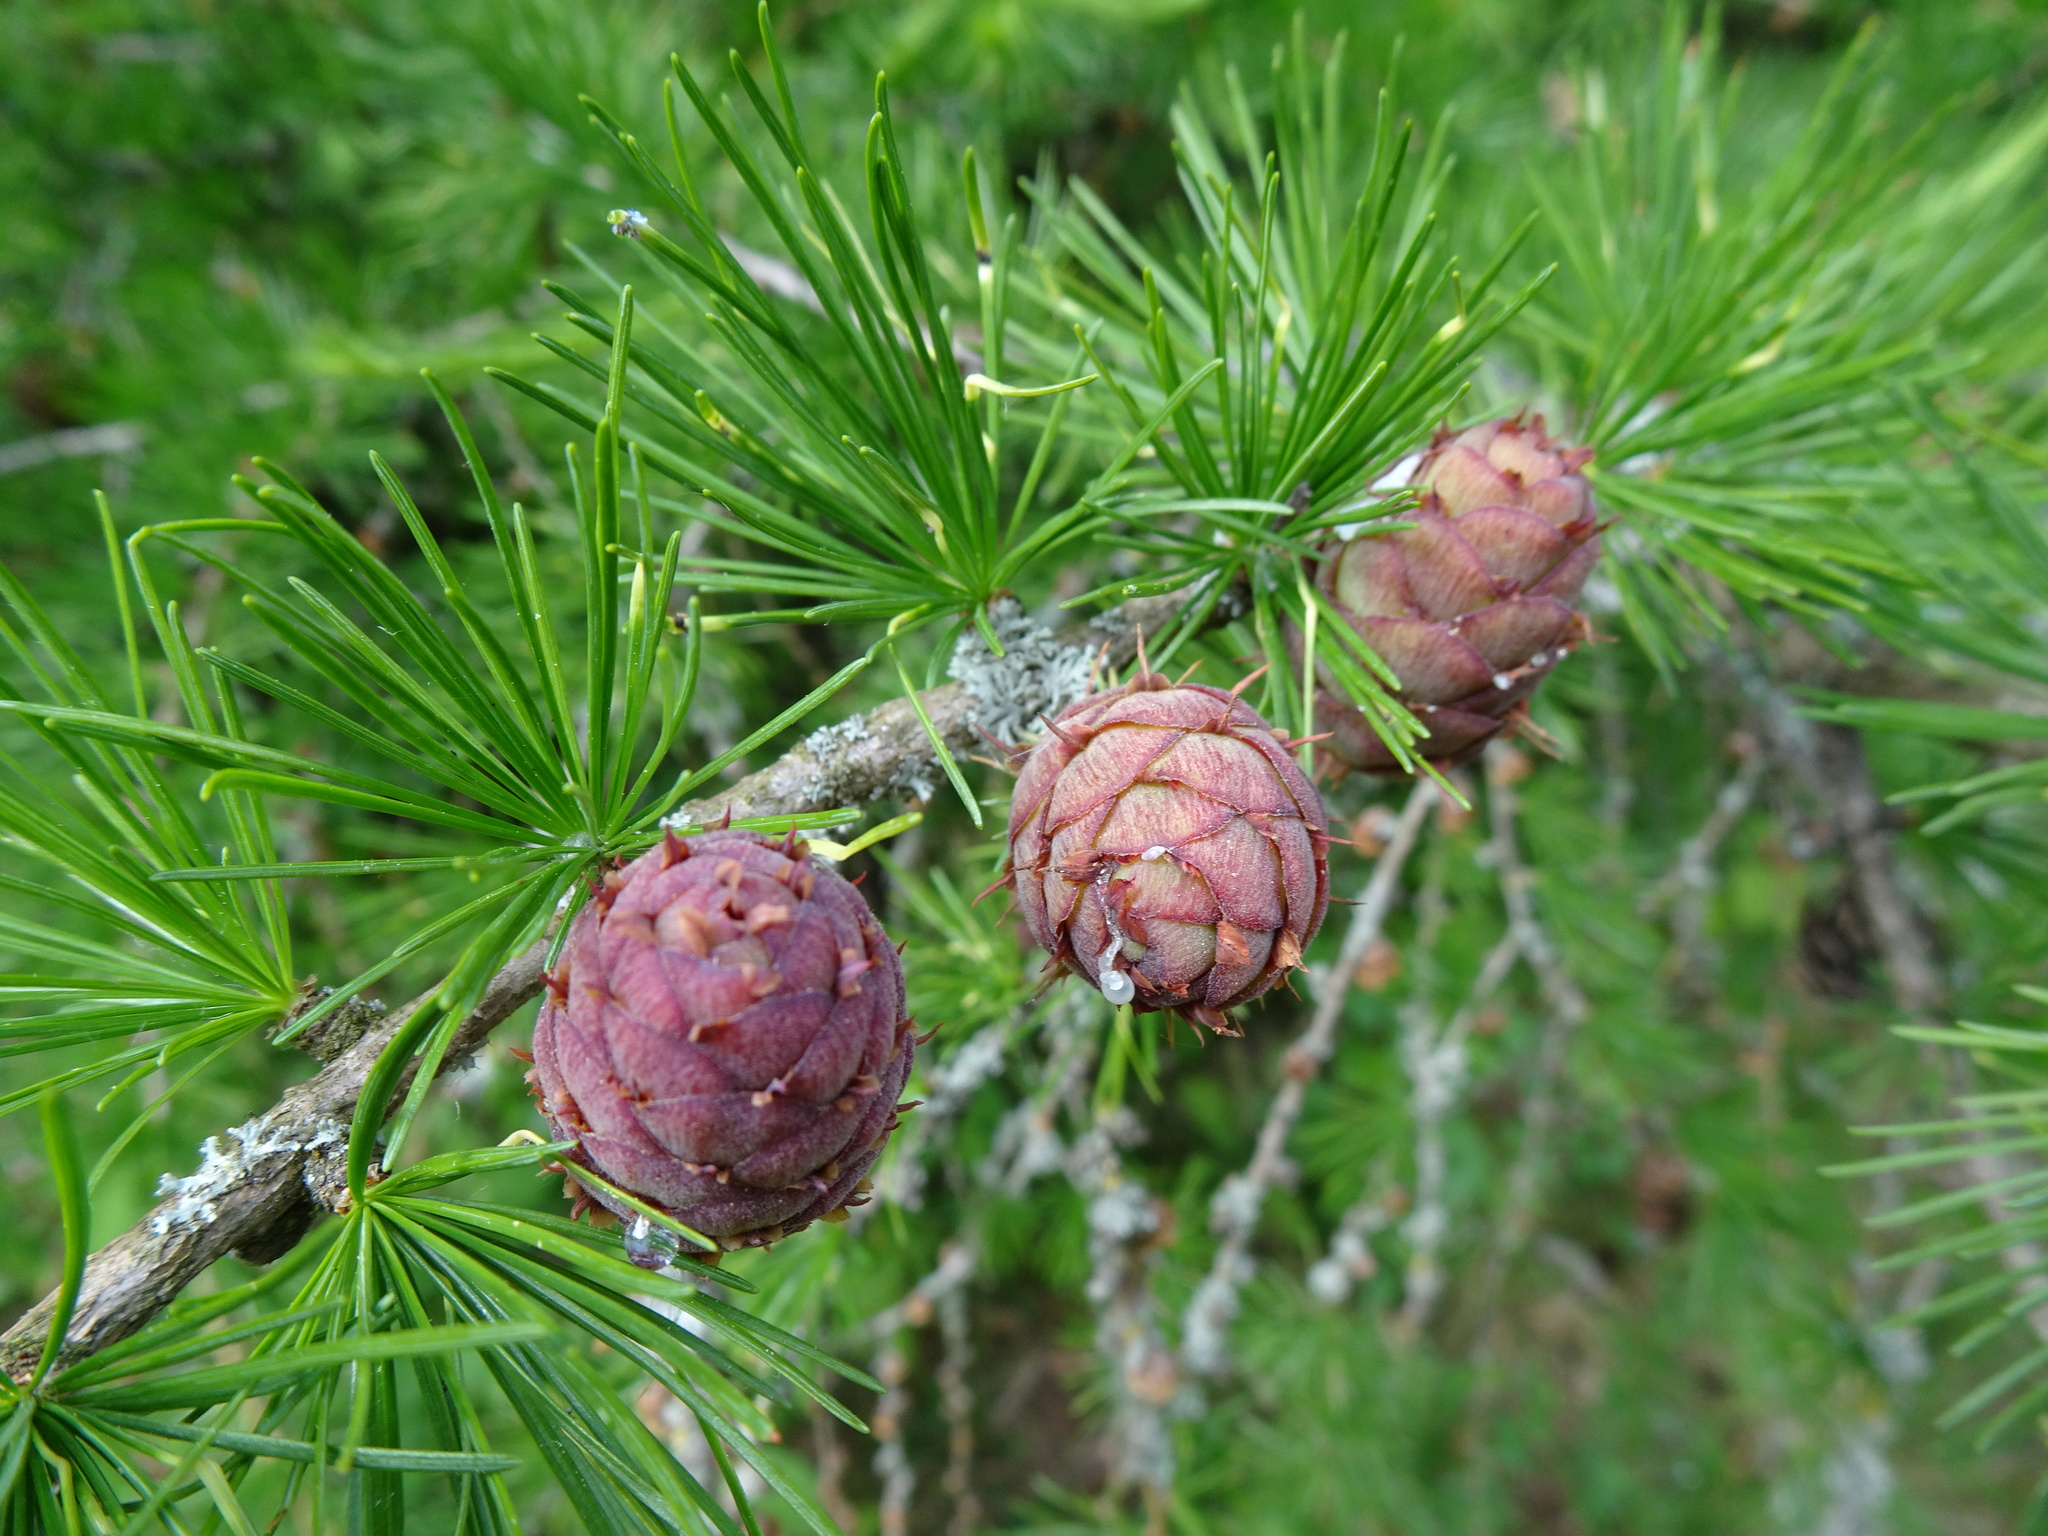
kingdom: Plantae
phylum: Tracheophyta
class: Pinopsida
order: Pinales
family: Pinaceae
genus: Larix
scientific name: Larix decidua
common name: European larch
